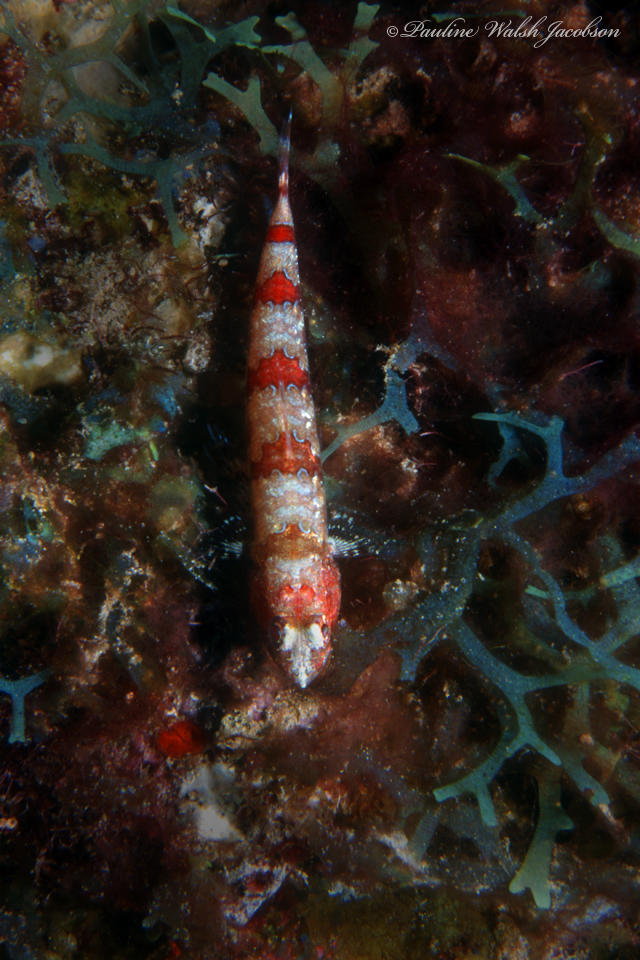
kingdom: Animalia
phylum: Chordata
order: Aulopiformes
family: Synodontidae
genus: Synodus
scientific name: Synodus synodus
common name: Red lizardfish
